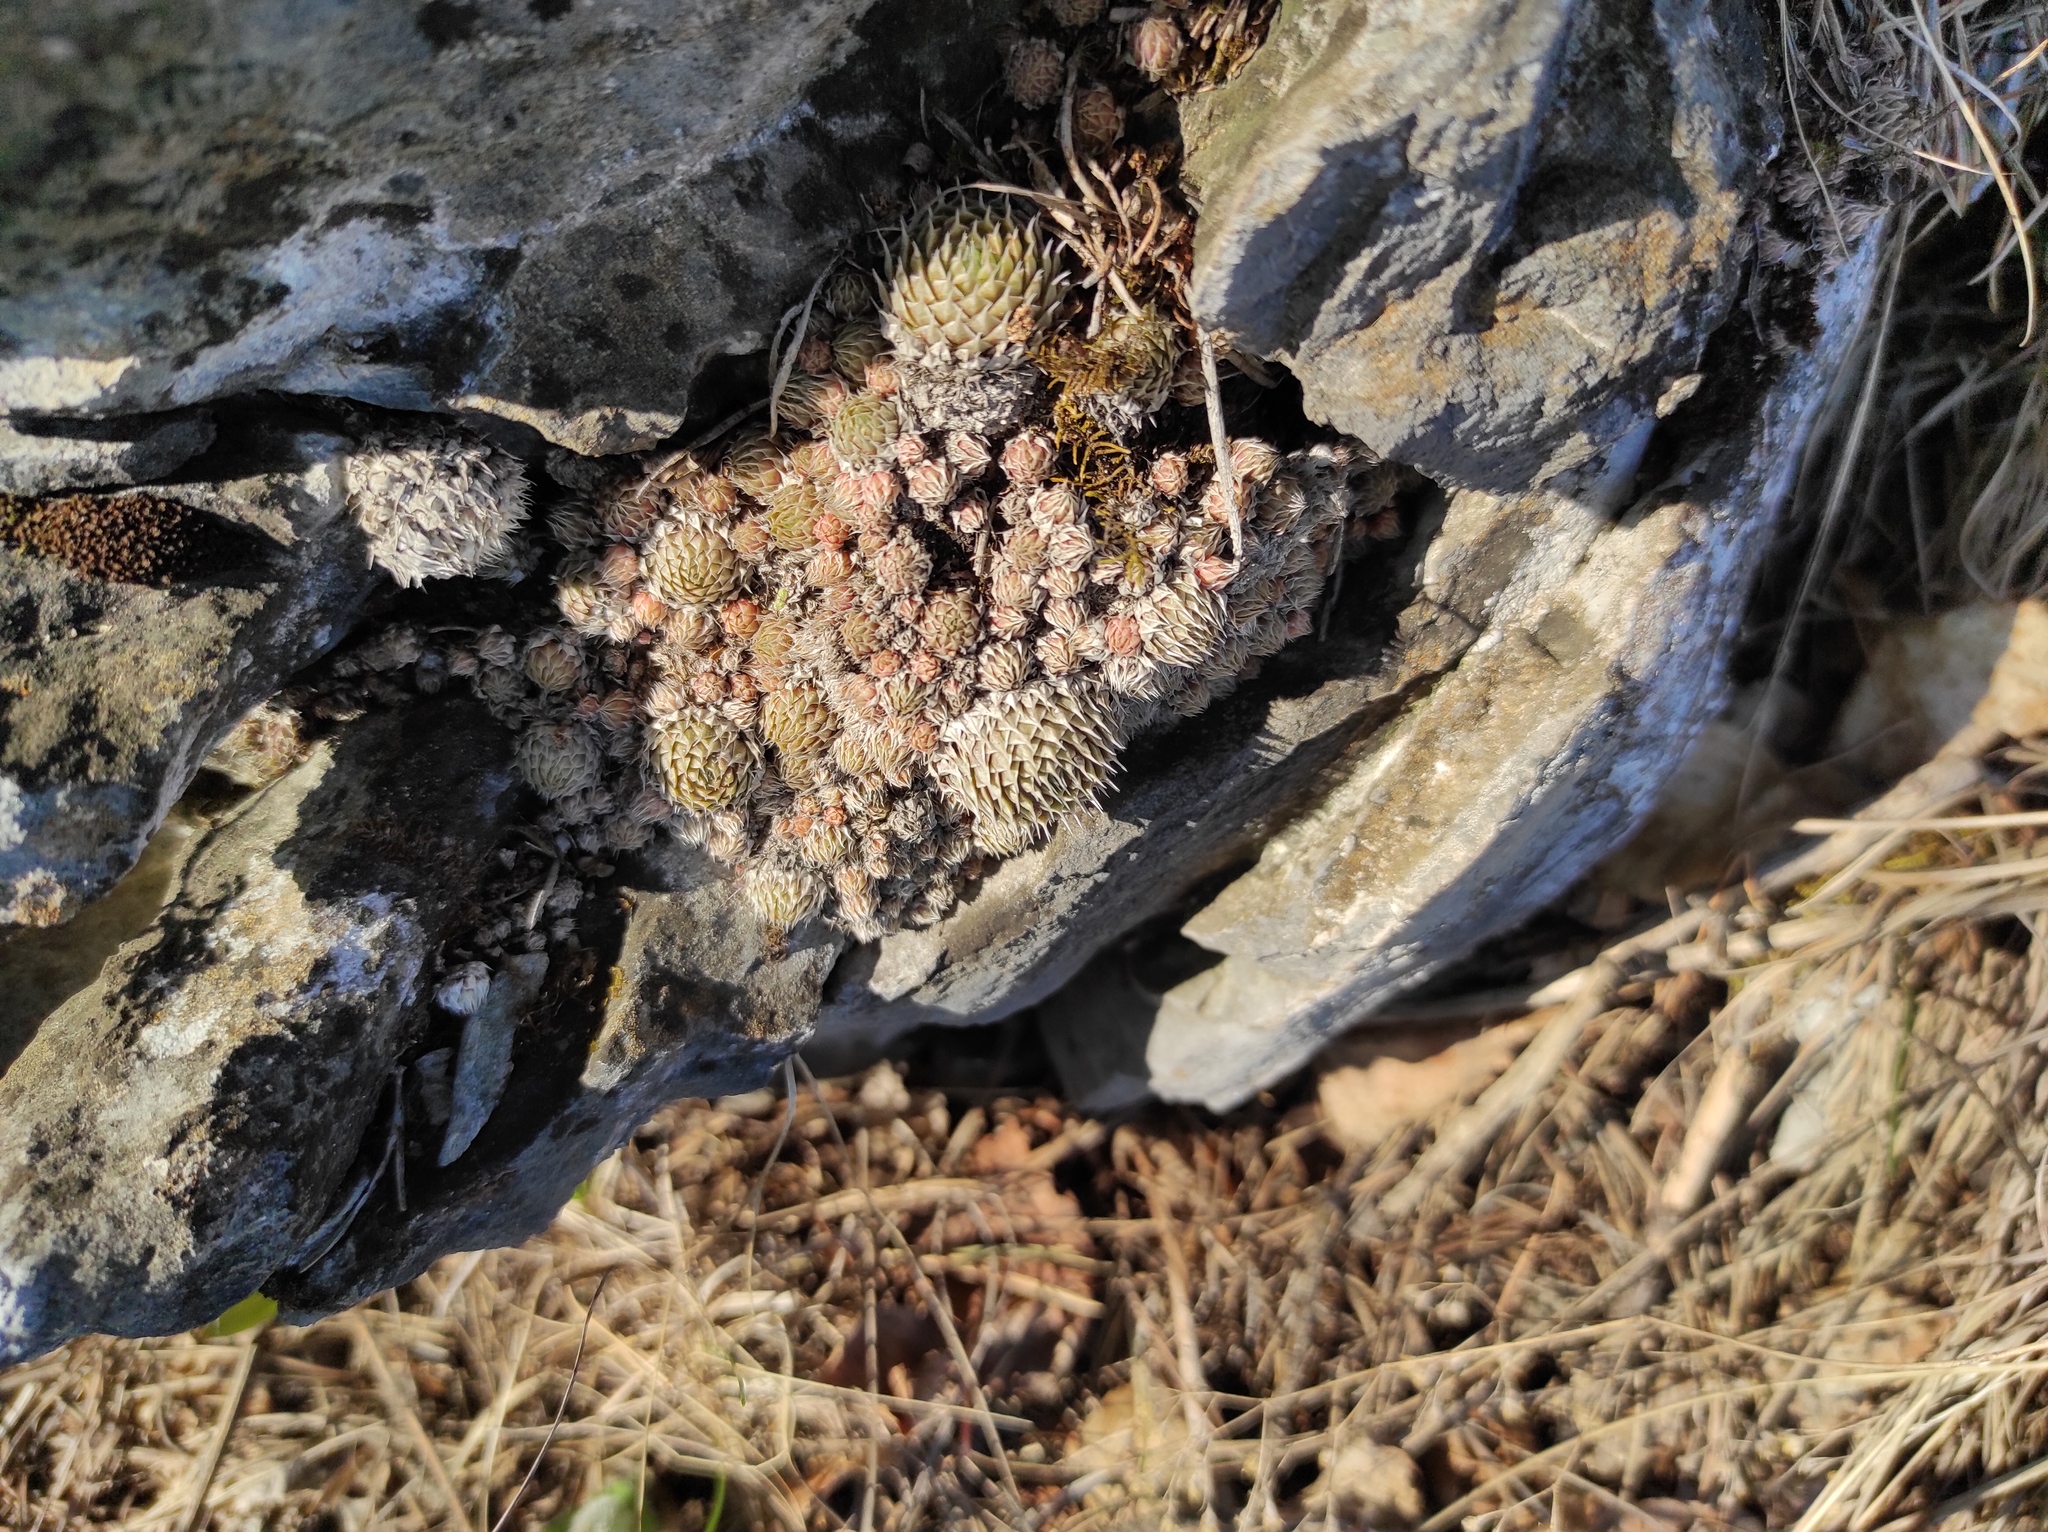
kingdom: Plantae
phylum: Tracheophyta
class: Magnoliopsida
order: Saxifragales
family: Crassulaceae
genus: Orostachys
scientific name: Orostachys spinosa
